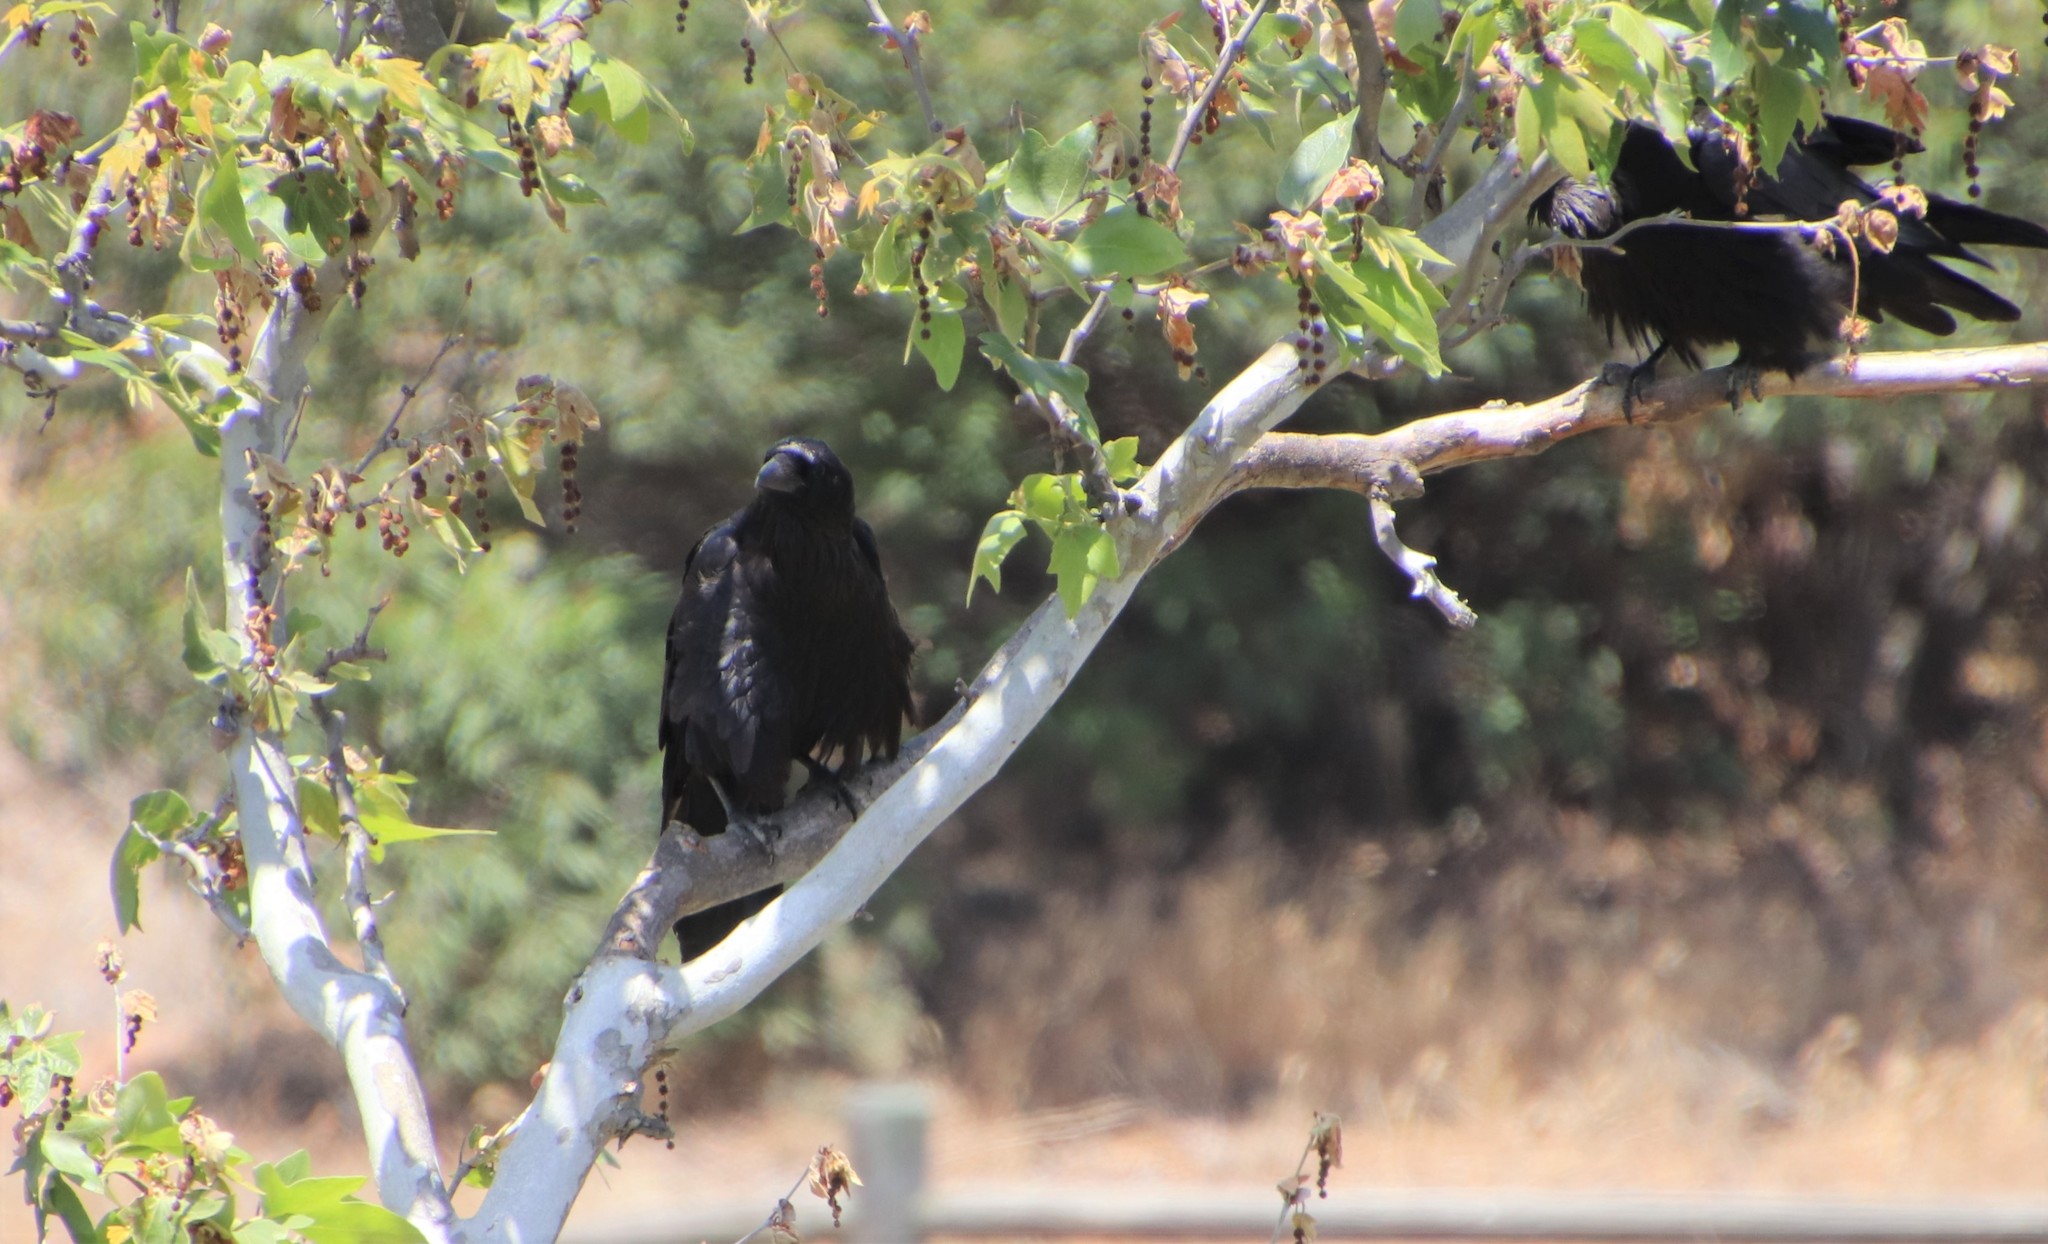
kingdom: Animalia
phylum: Chordata
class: Aves
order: Passeriformes
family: Corvidae
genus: Corvus
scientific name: Corvus corax
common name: Common raven
